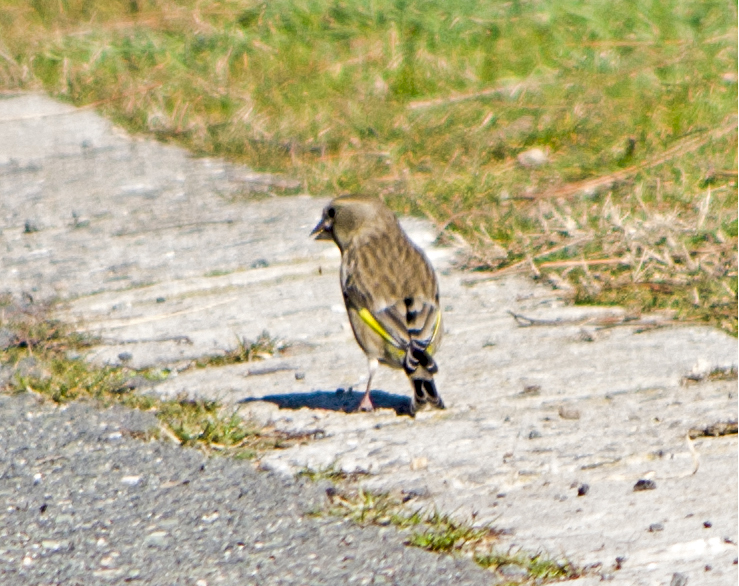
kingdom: Plantae
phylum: Tracheophyta
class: Liliopsida
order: Poales
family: Poaceae
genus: Chloris
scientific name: Chloris chloris
